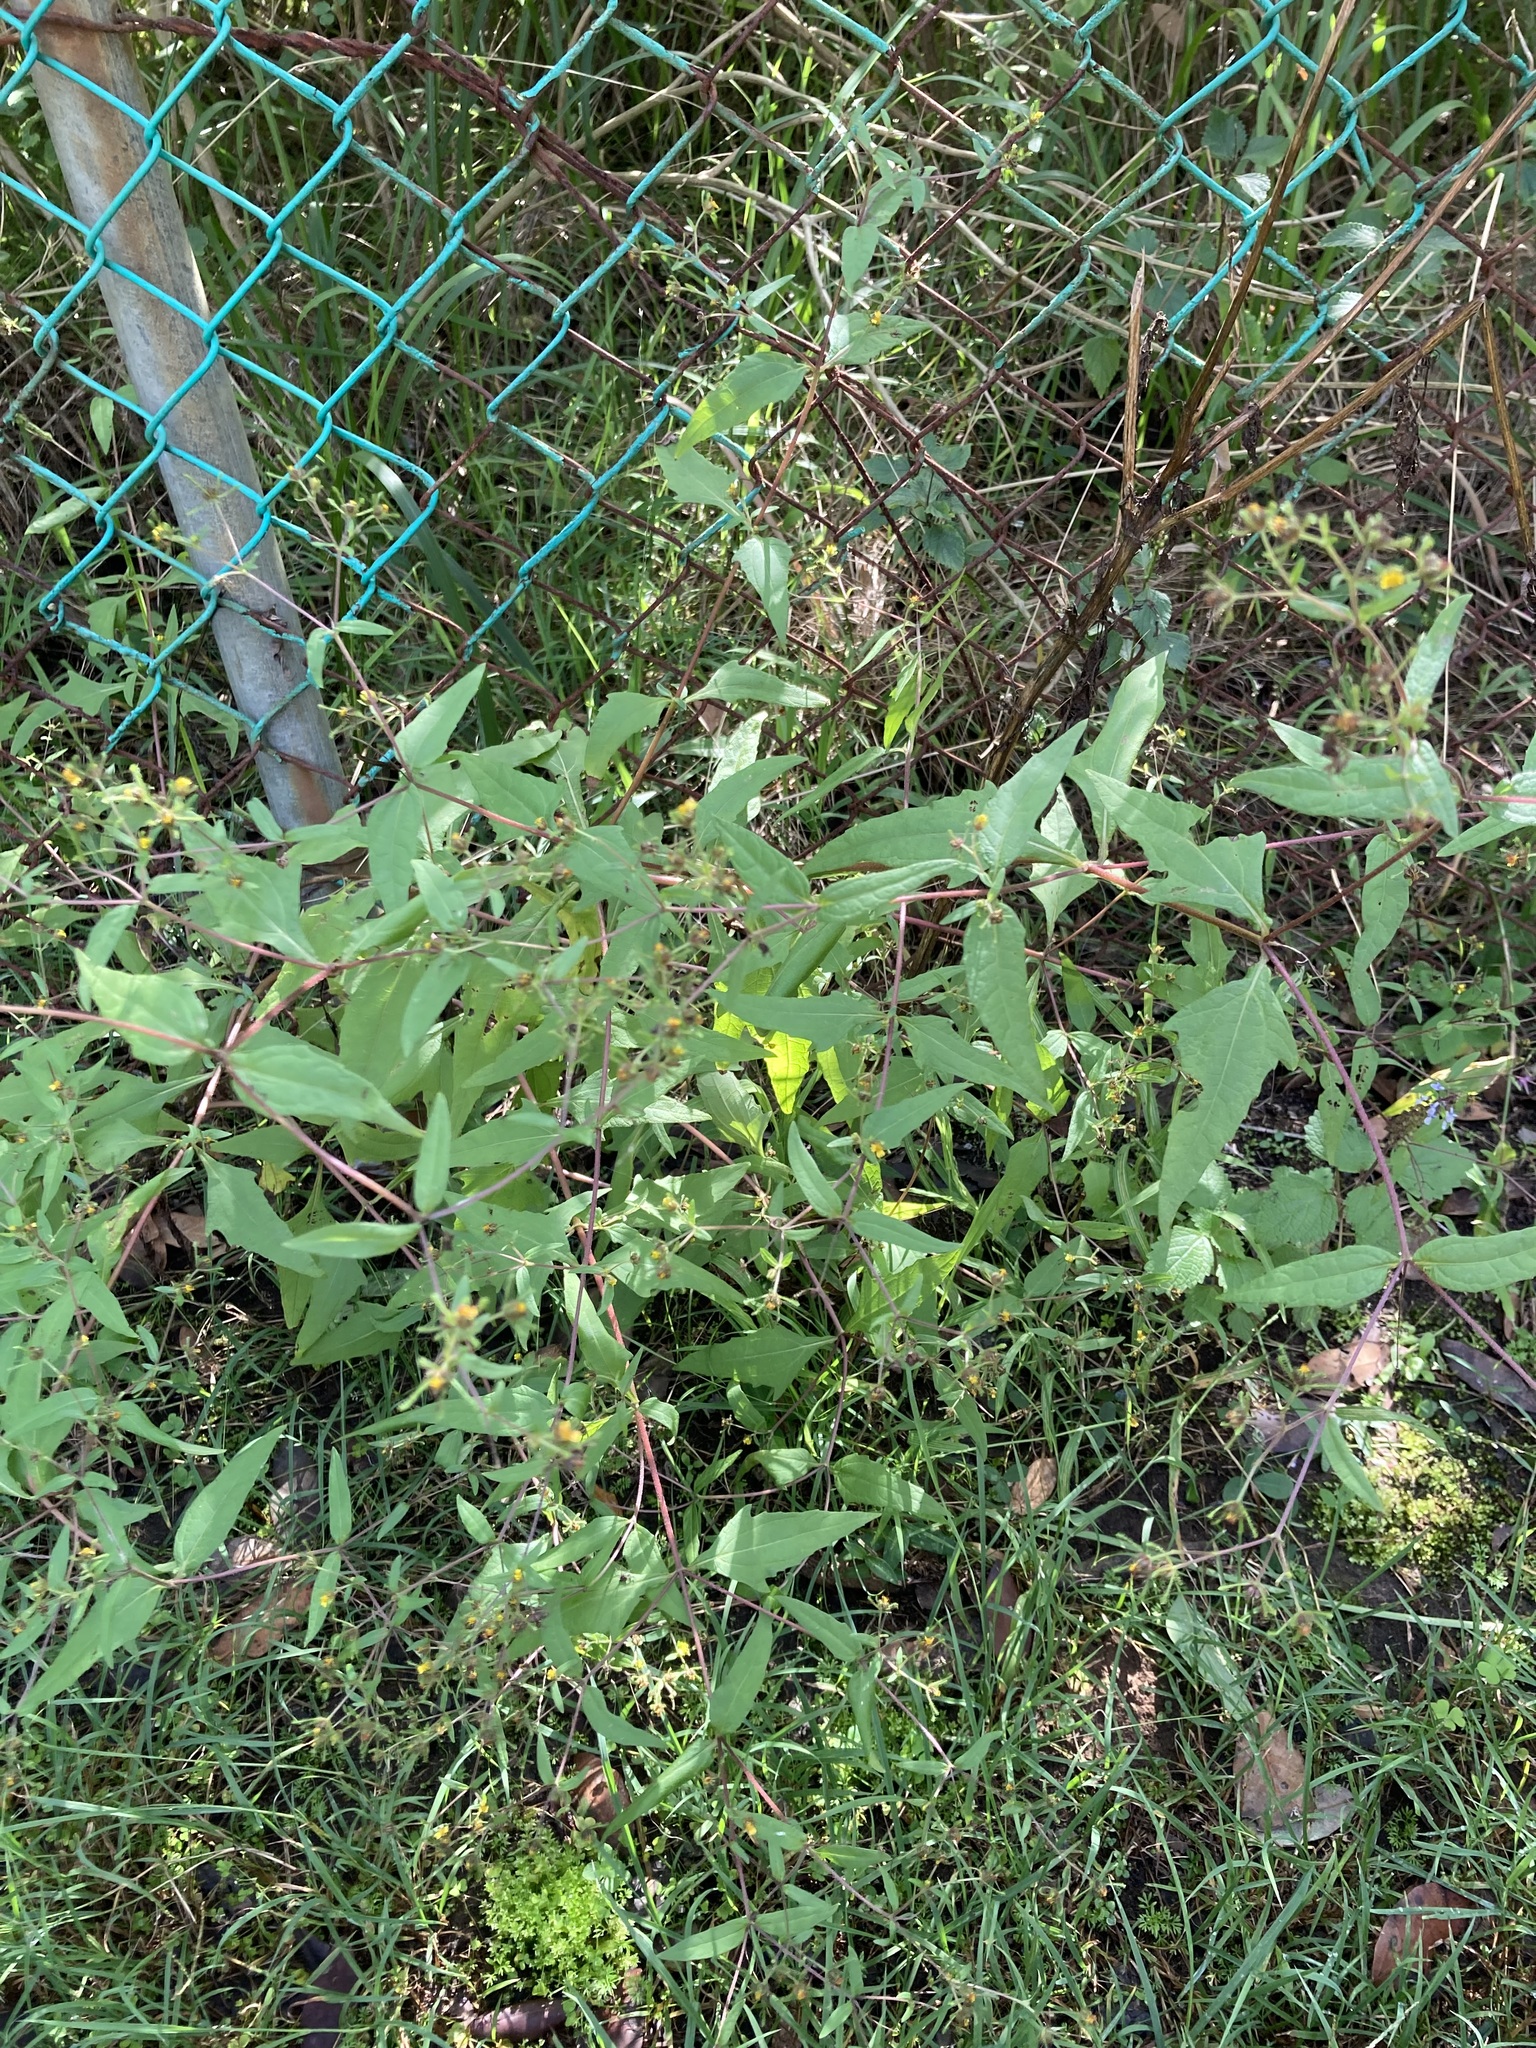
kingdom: Plantae
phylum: Tracheophyta
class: Magnoliopsida
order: Asterales
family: Asteraceae
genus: Sigesbeckia
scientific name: Sigesbeckia orientalis
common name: Eastern st paul's-wort
